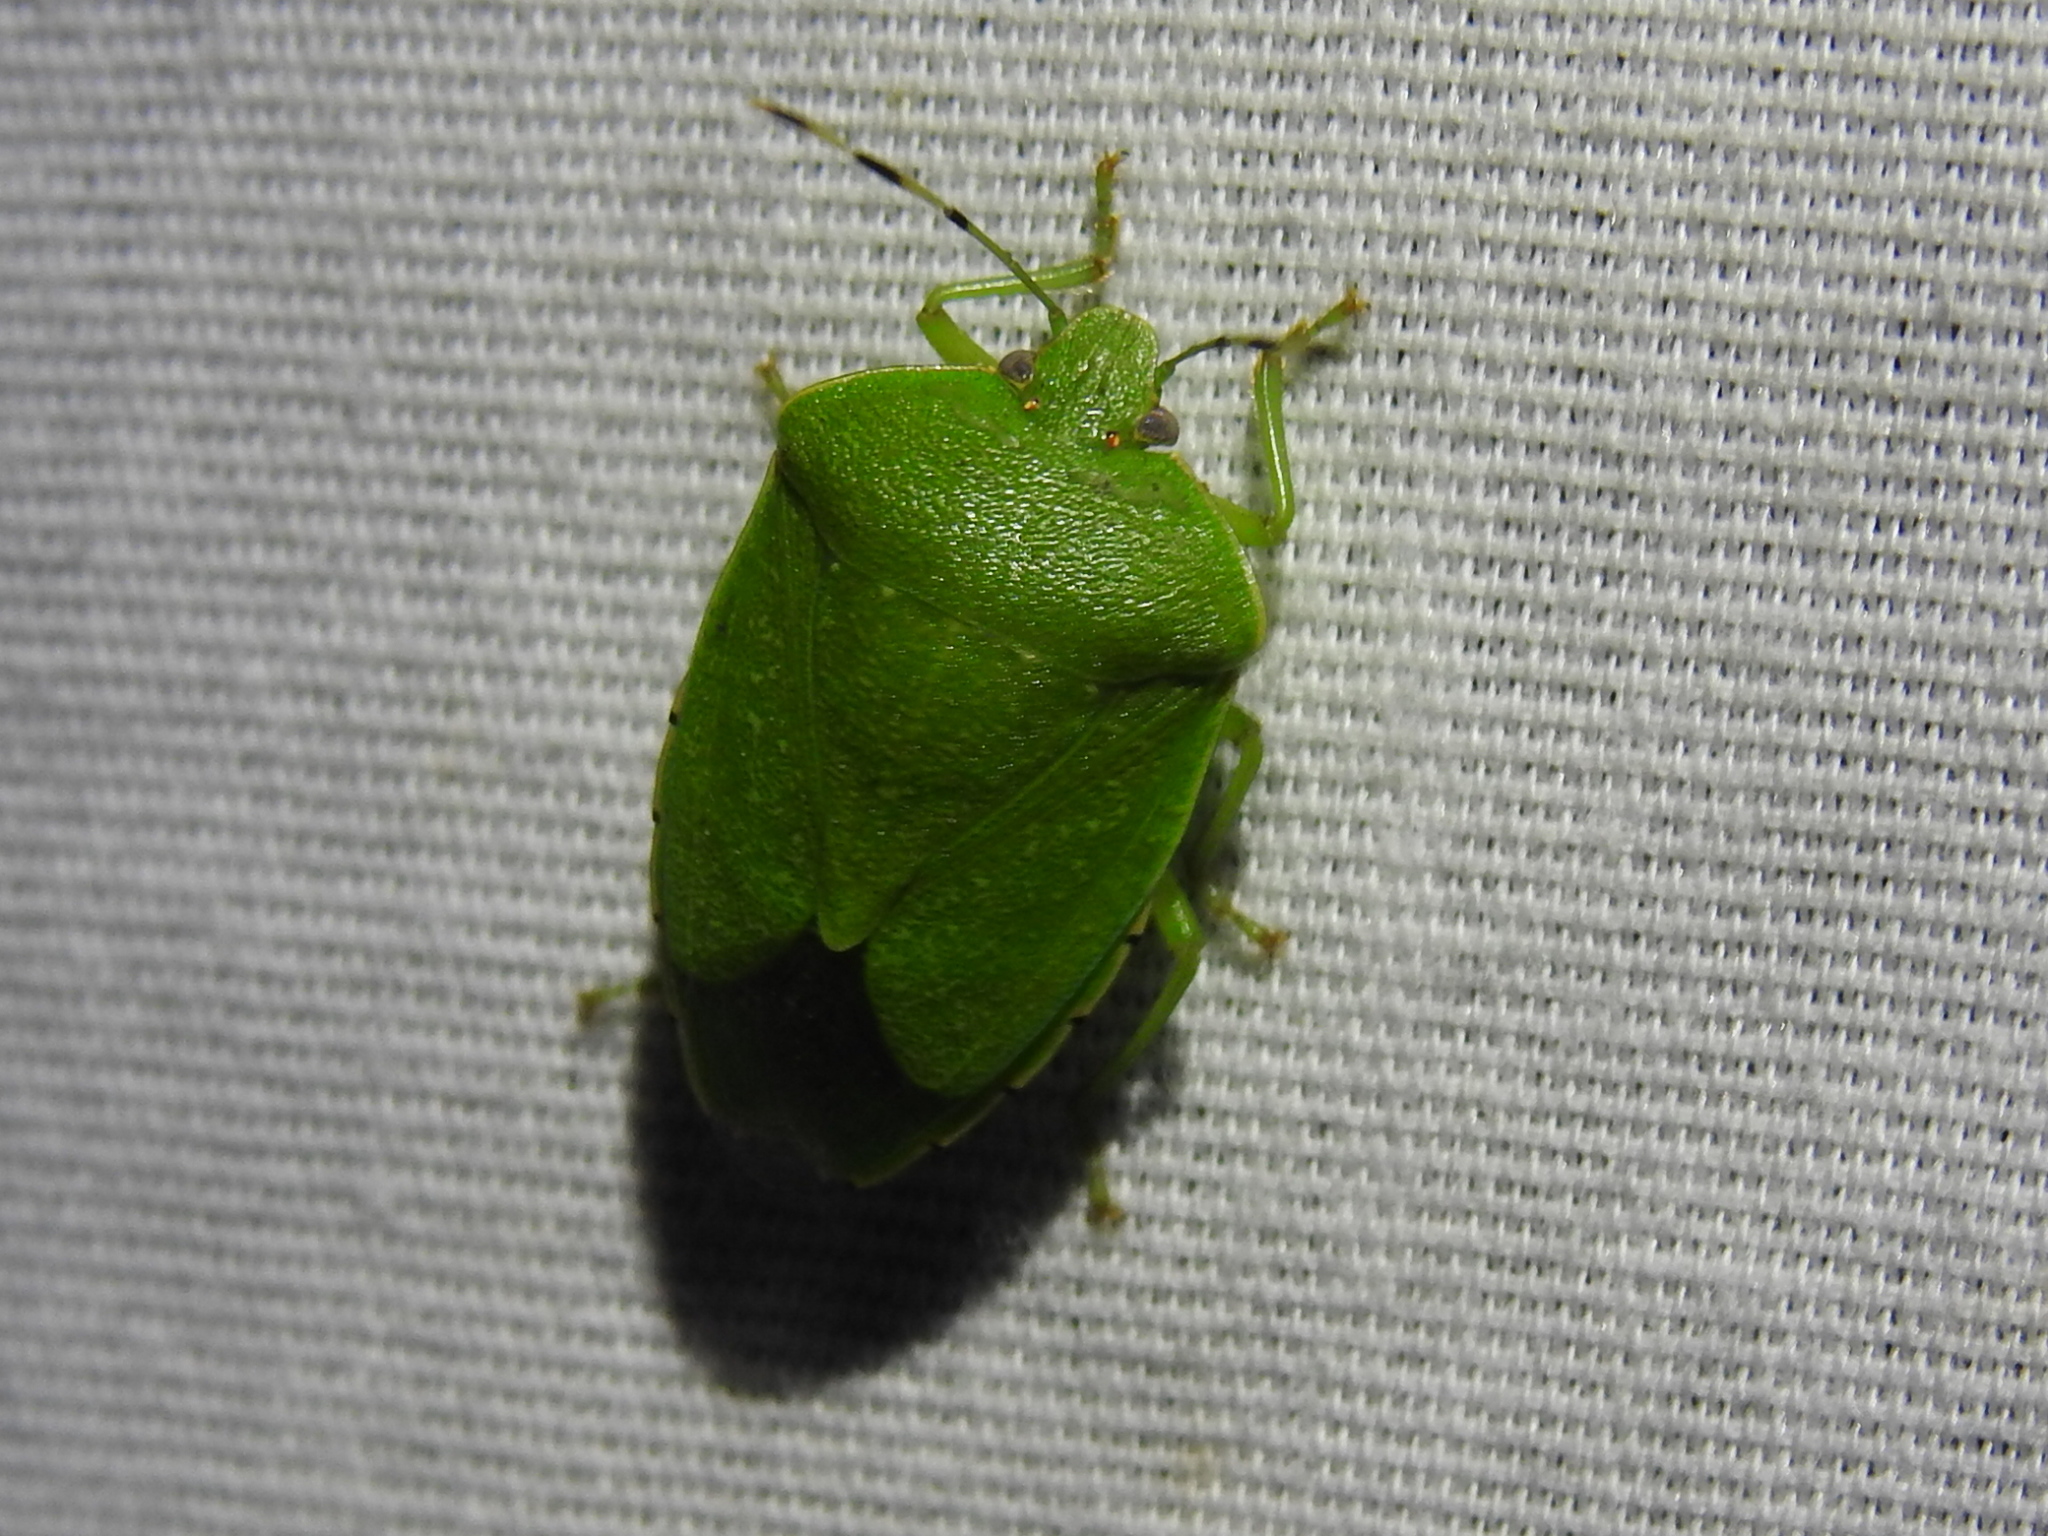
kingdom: Animalia
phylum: Arthropoda
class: Insecta
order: Hemiptera
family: Pentatomidae
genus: Chinavia
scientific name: Chinavia hilaris
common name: Green stink bug
